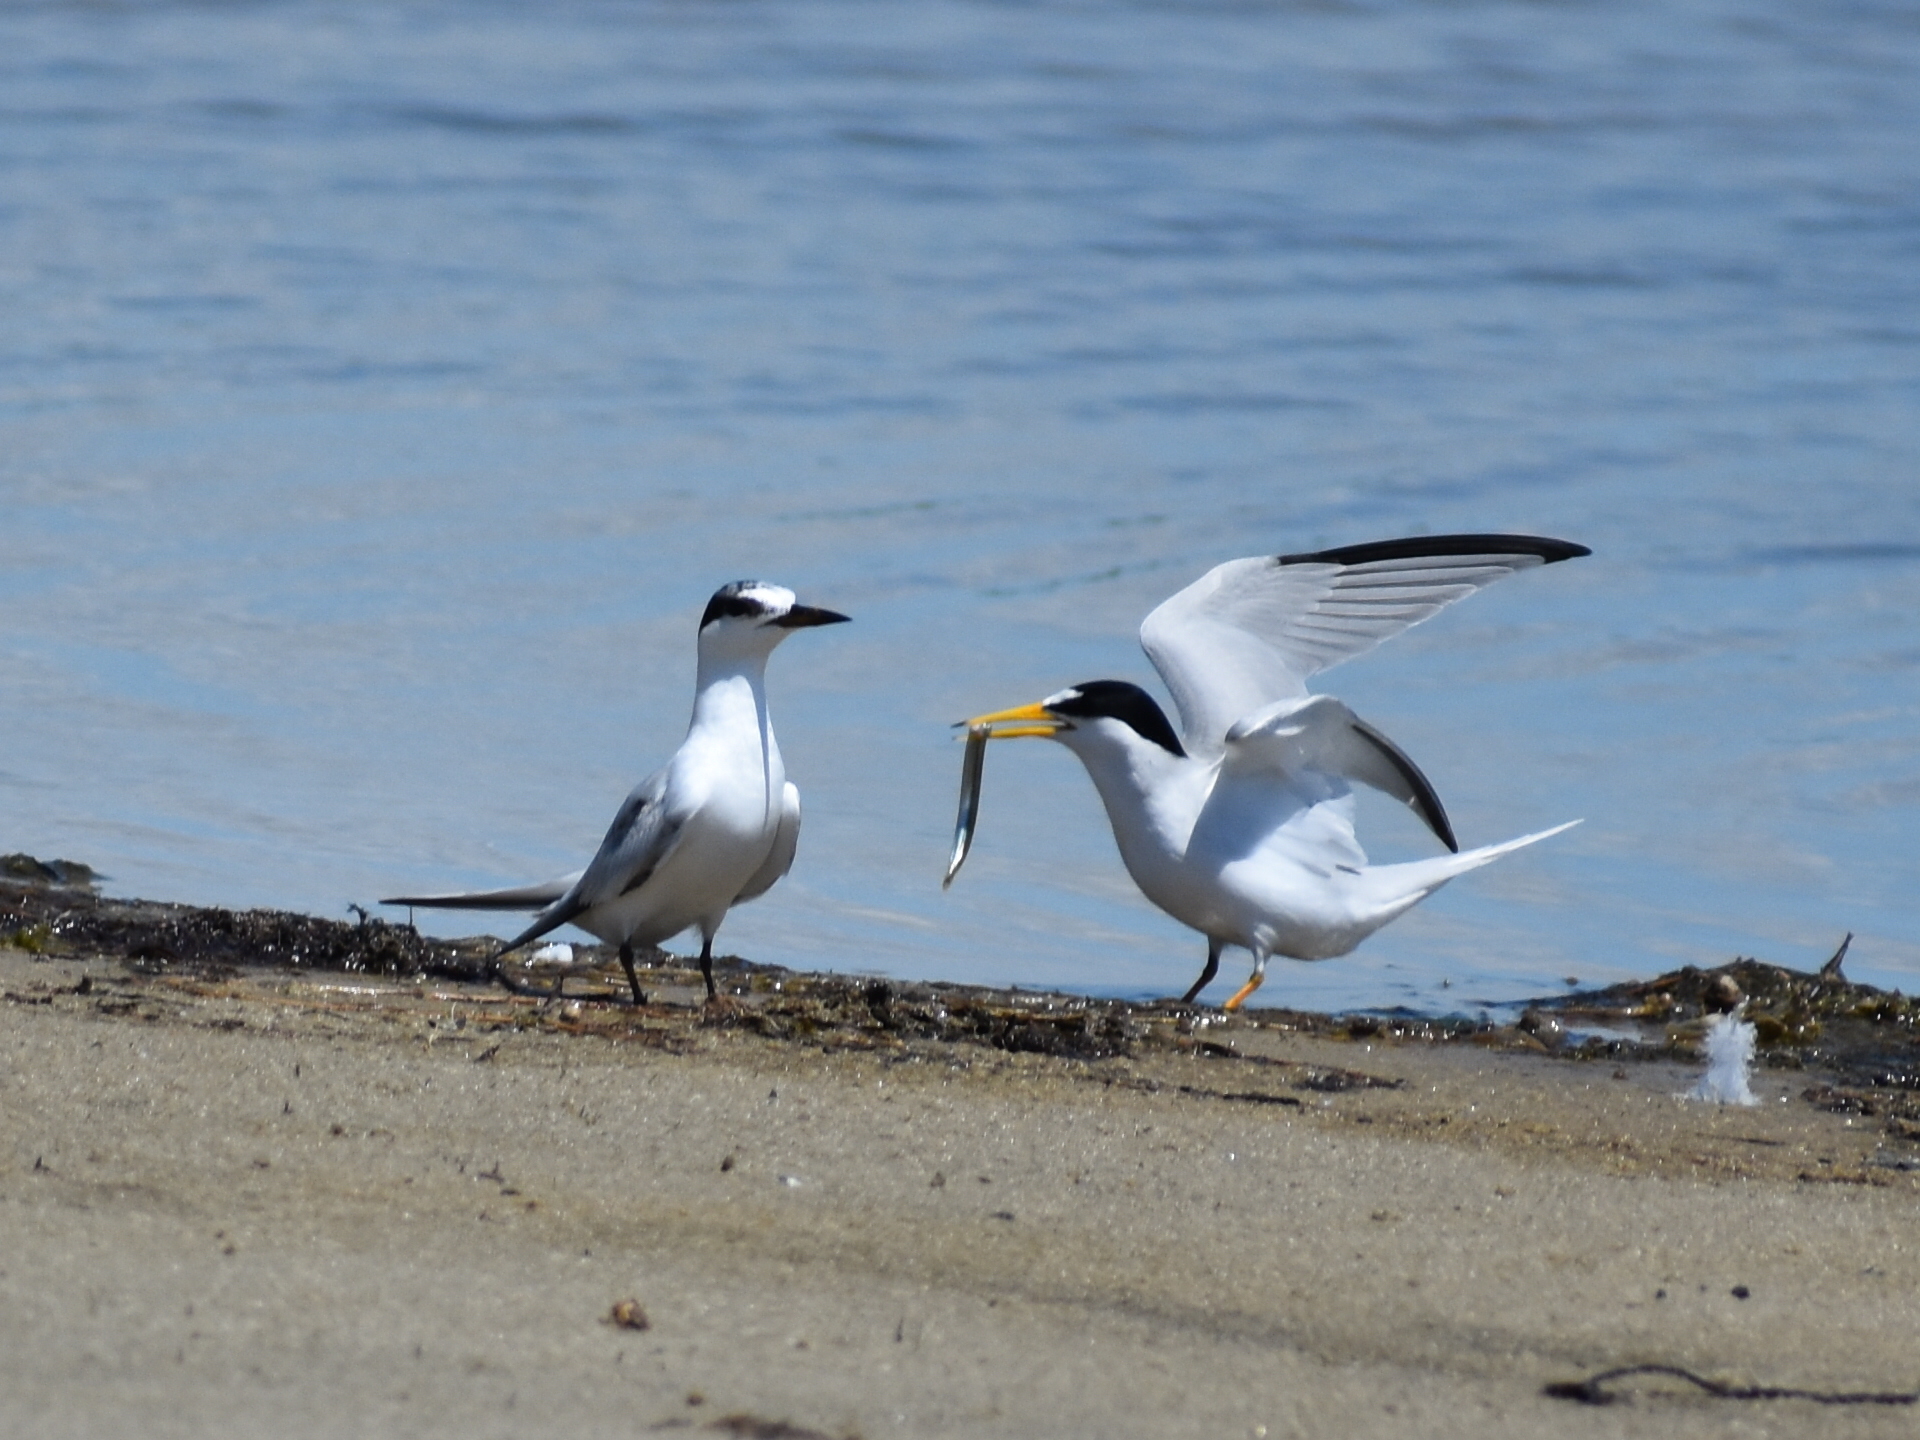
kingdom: Animalia
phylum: Chordata
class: Aves
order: Charadriiformes
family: Laridae
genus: Sternula
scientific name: Sternula antillarum
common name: Least tern
